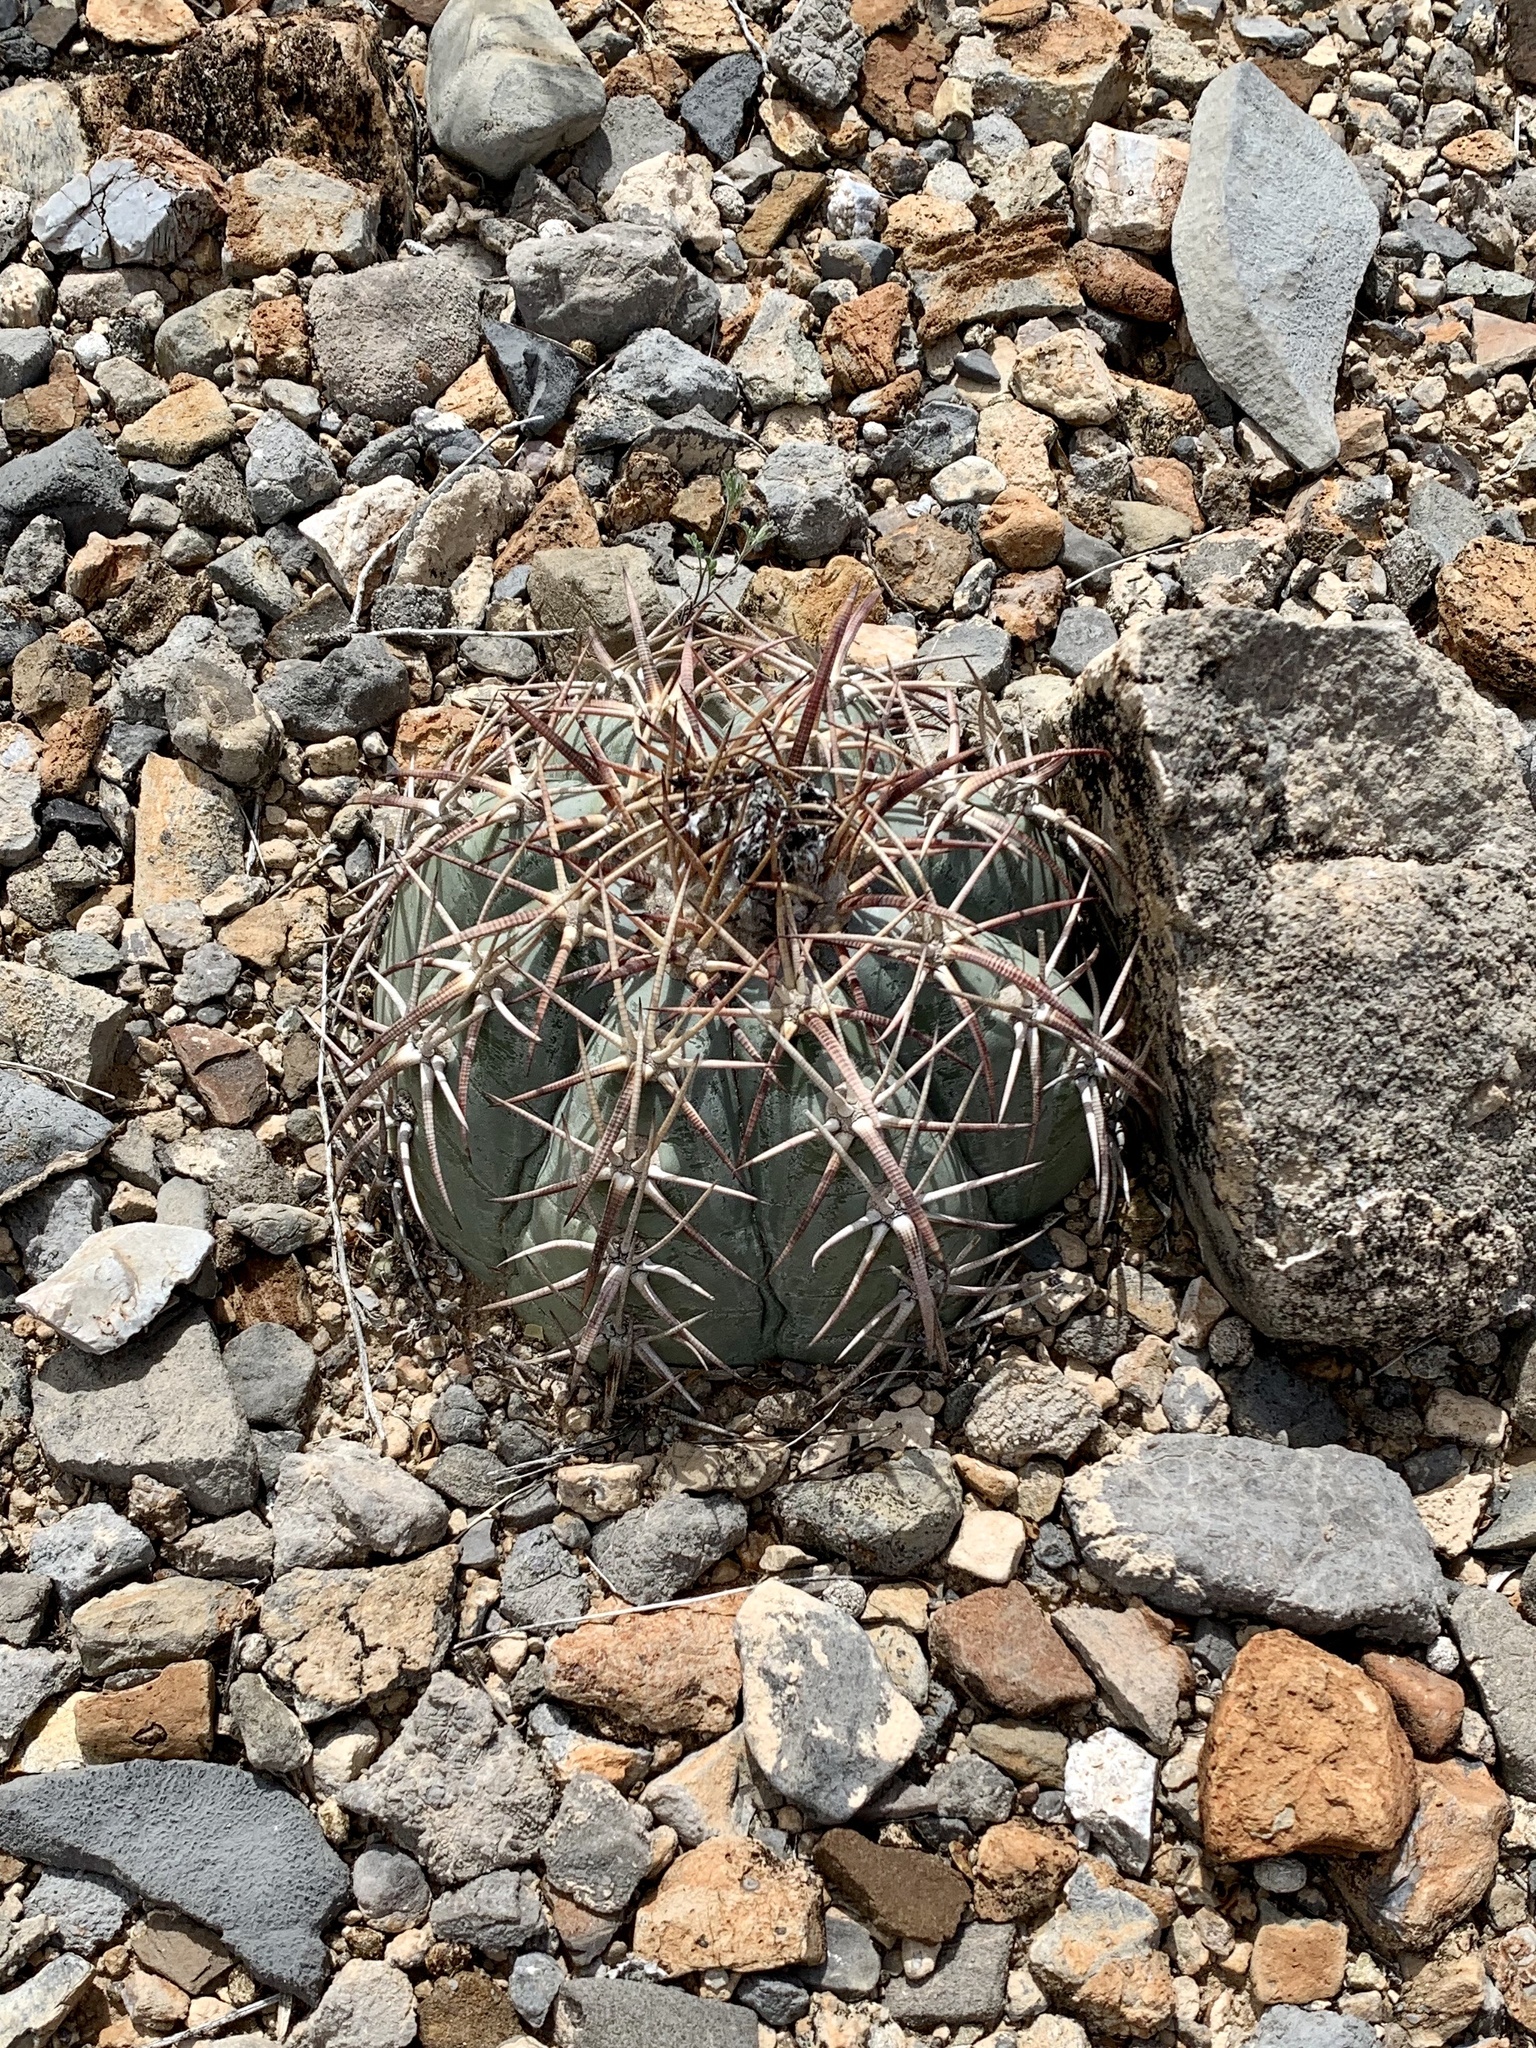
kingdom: Plantae
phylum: Tracheophyta
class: Magnoliopsida
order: Caryophyllales
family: Cactaceae
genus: Echinocactus
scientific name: Echinocactus horizonthalonius
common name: Devilshead
